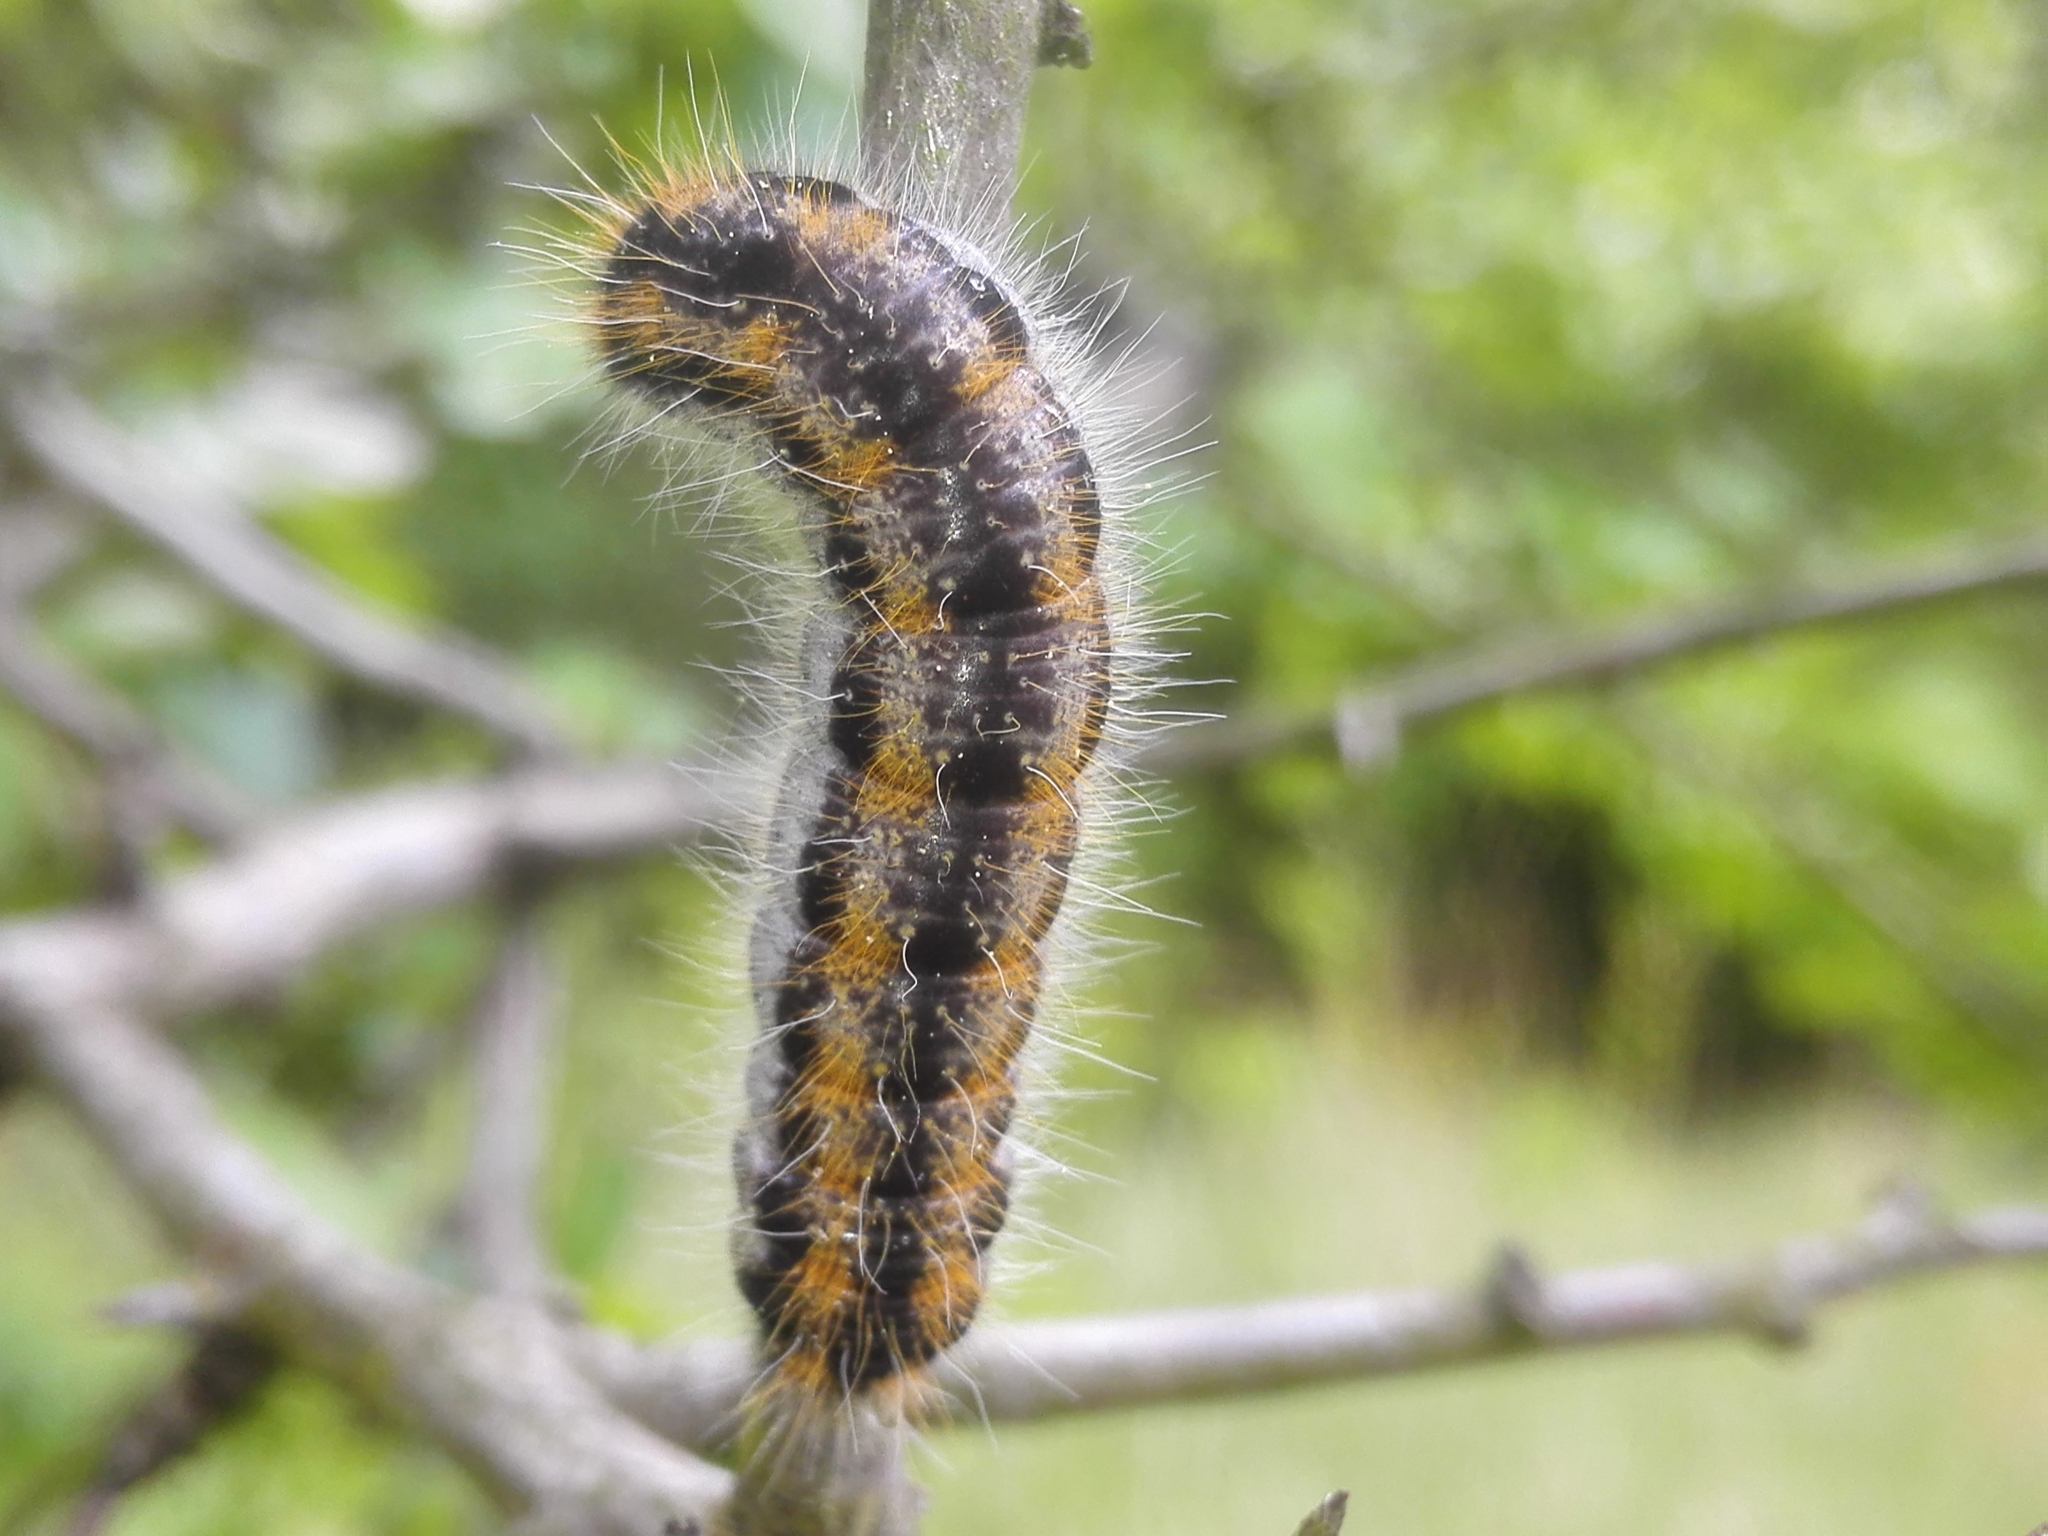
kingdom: Animalia
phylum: Arthropoda
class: Insecta
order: Lepidoptera
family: Pieridae
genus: Aporia
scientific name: Aporia crataegi
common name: Black-veined white
